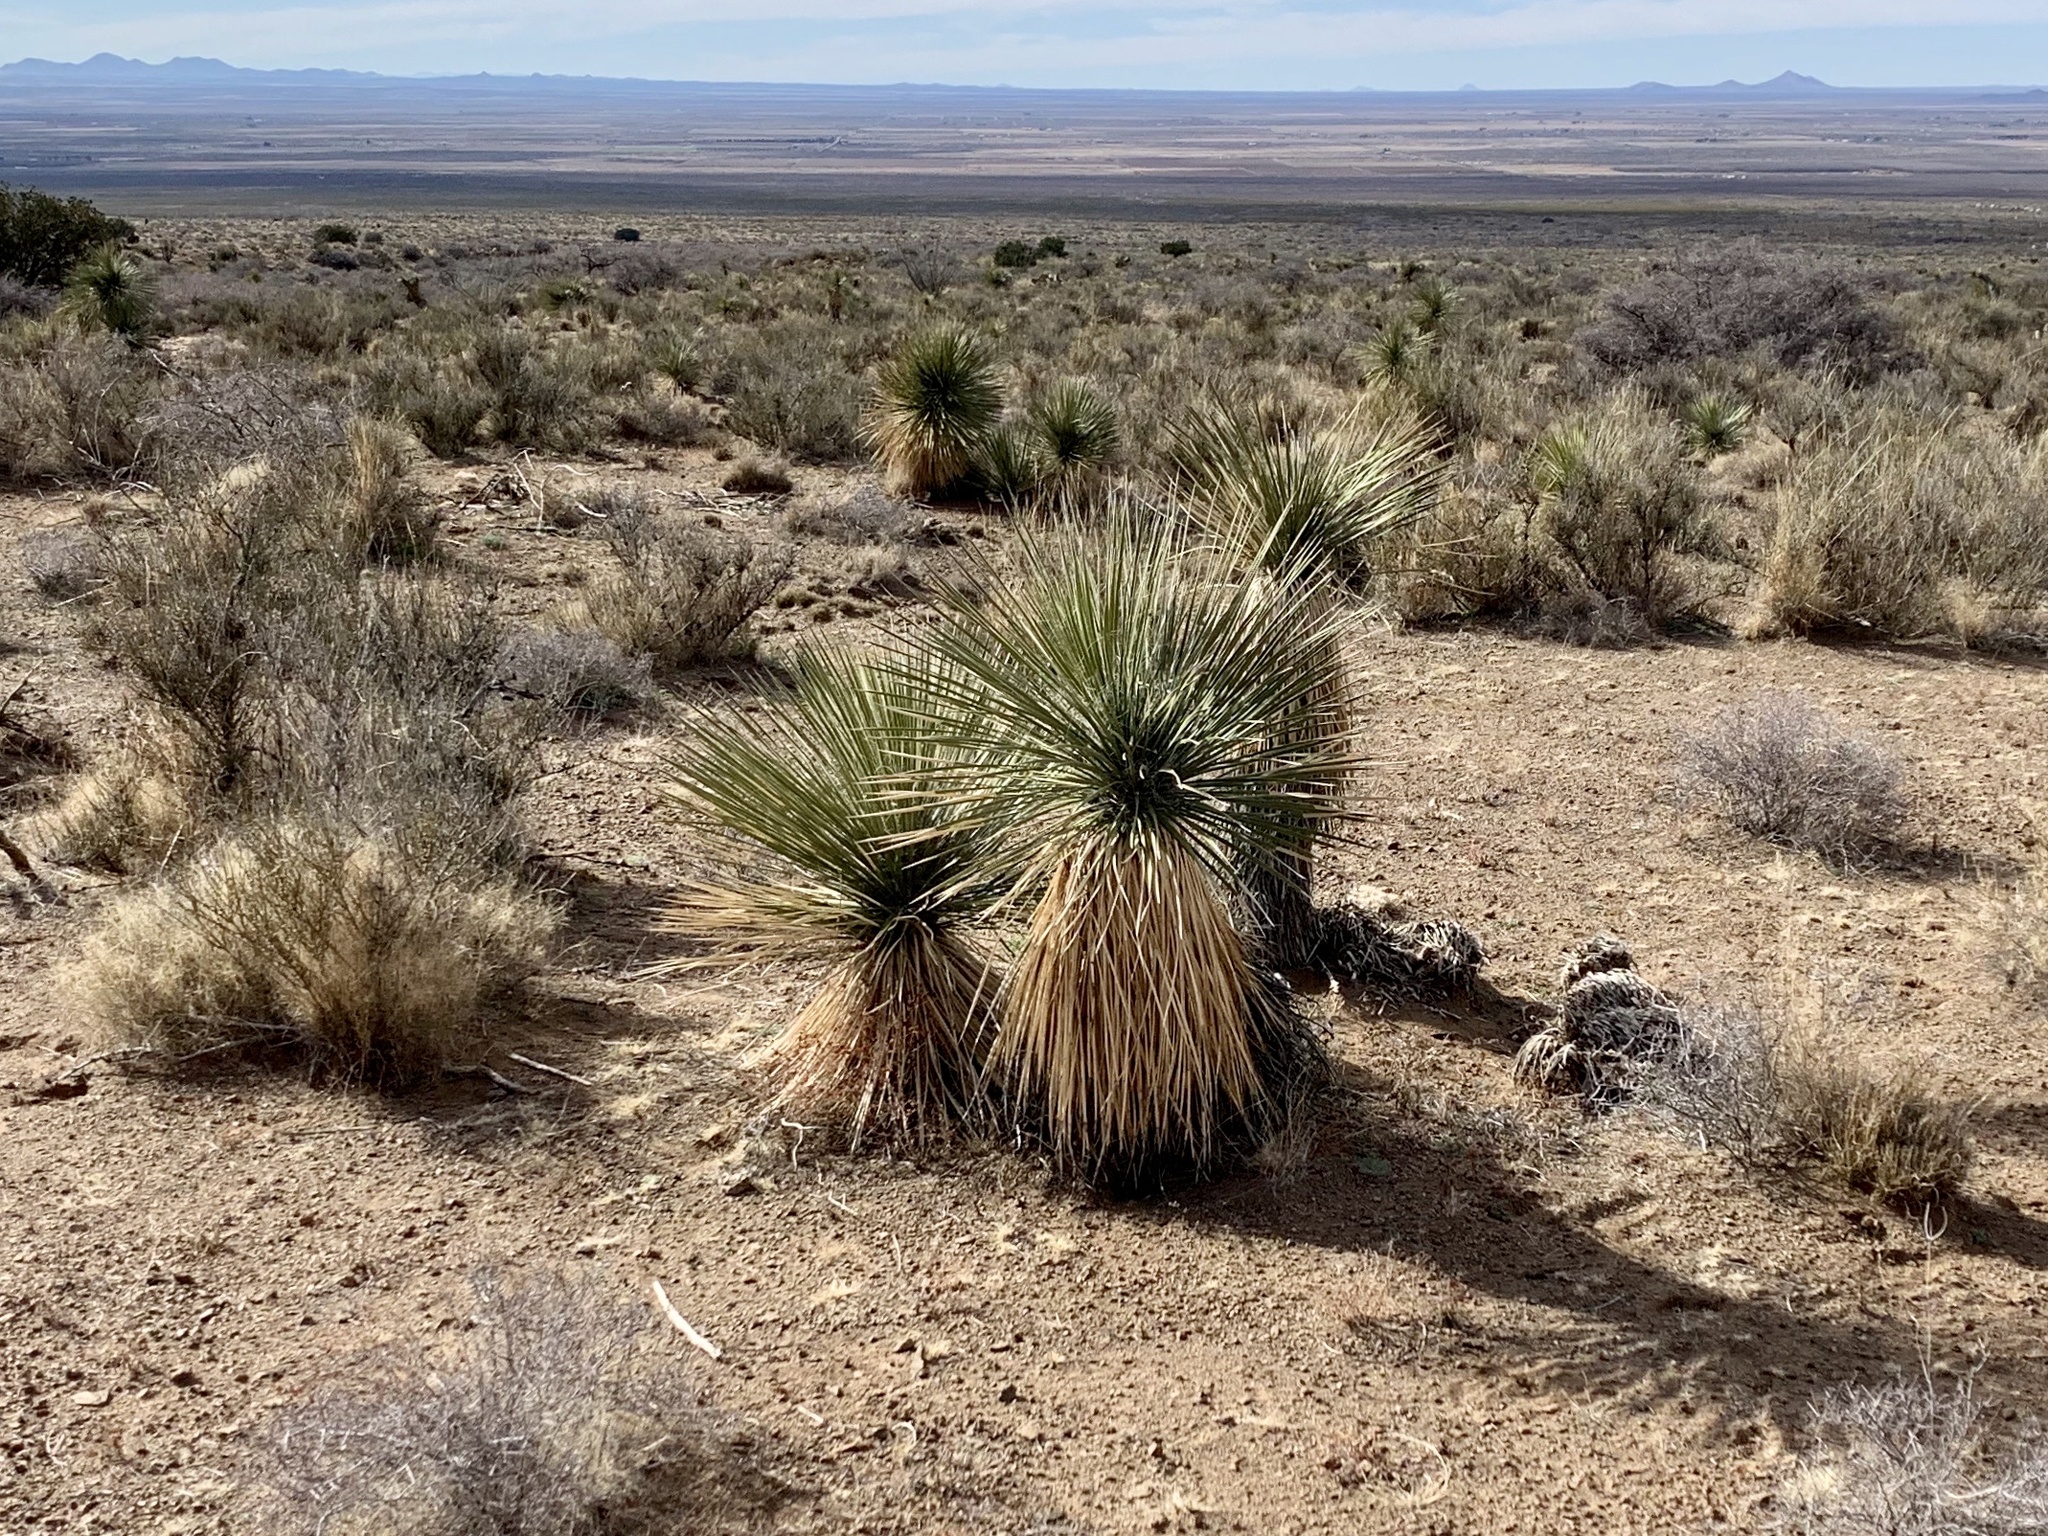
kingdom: Plantae
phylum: Tracheophyta
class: Liliopsida
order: Asparagales
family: Asparagaceae
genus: Yucca
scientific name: Yucca elata
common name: Palmella
